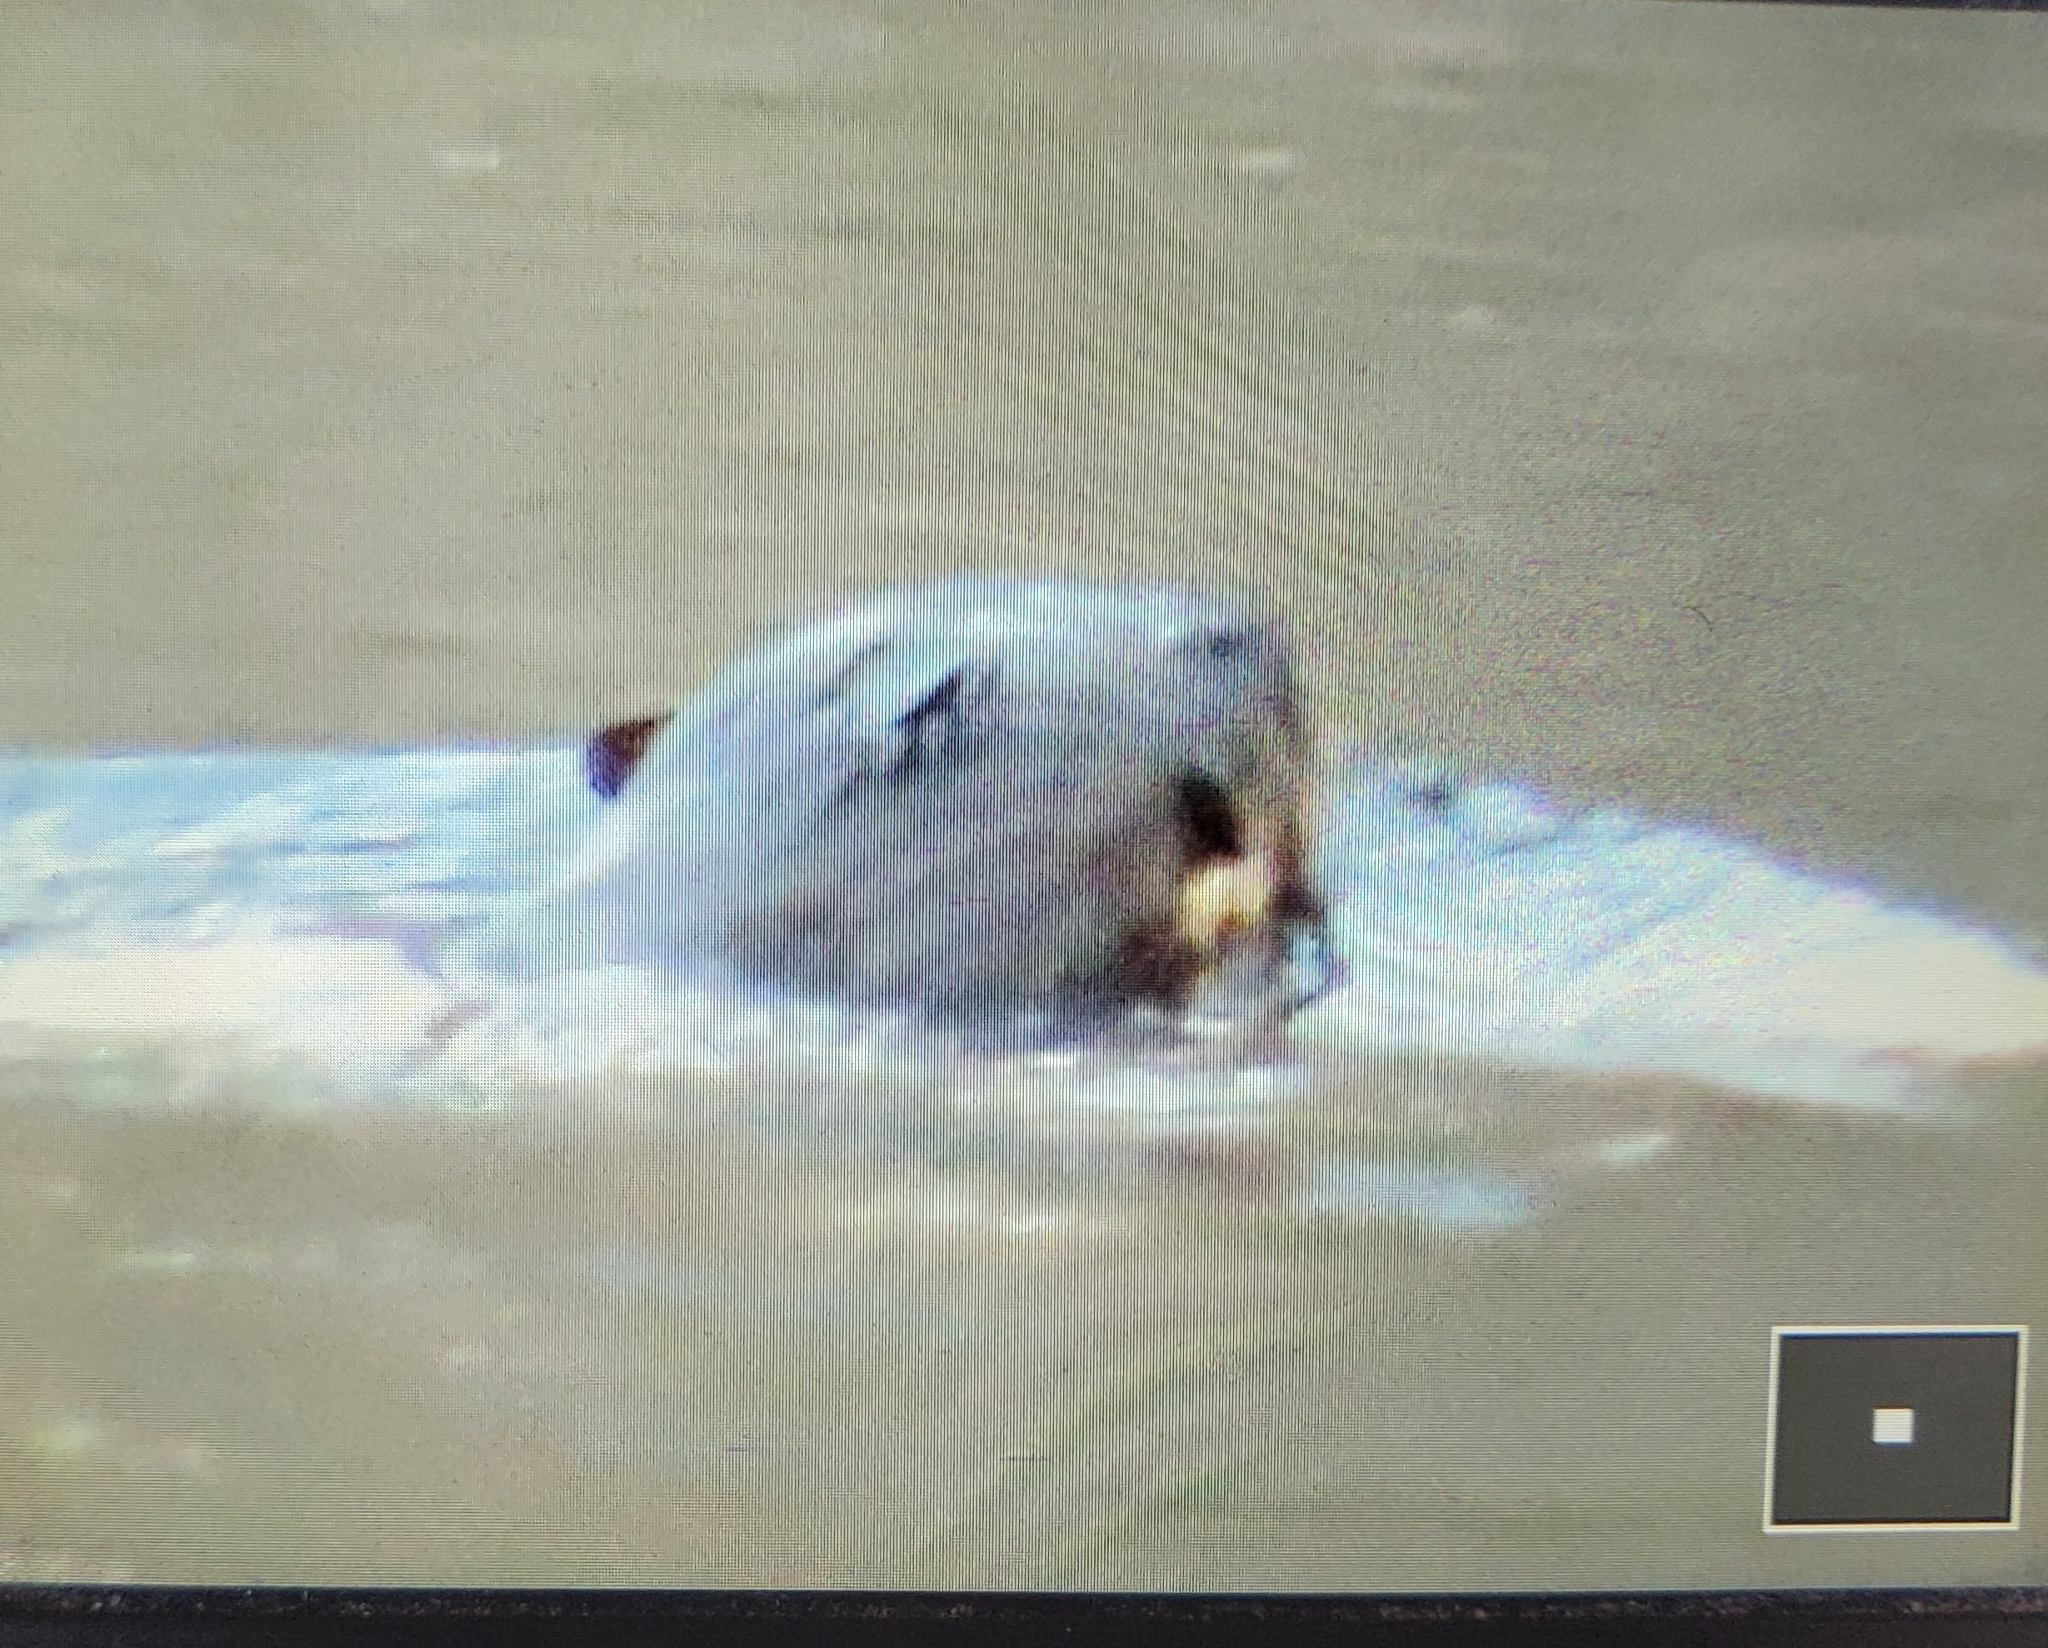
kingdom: Animalia
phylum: Chordata
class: Mammalia
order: Carnivora
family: Mustelidae
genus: Lontra
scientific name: Lontra canadensis
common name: North american river otter
